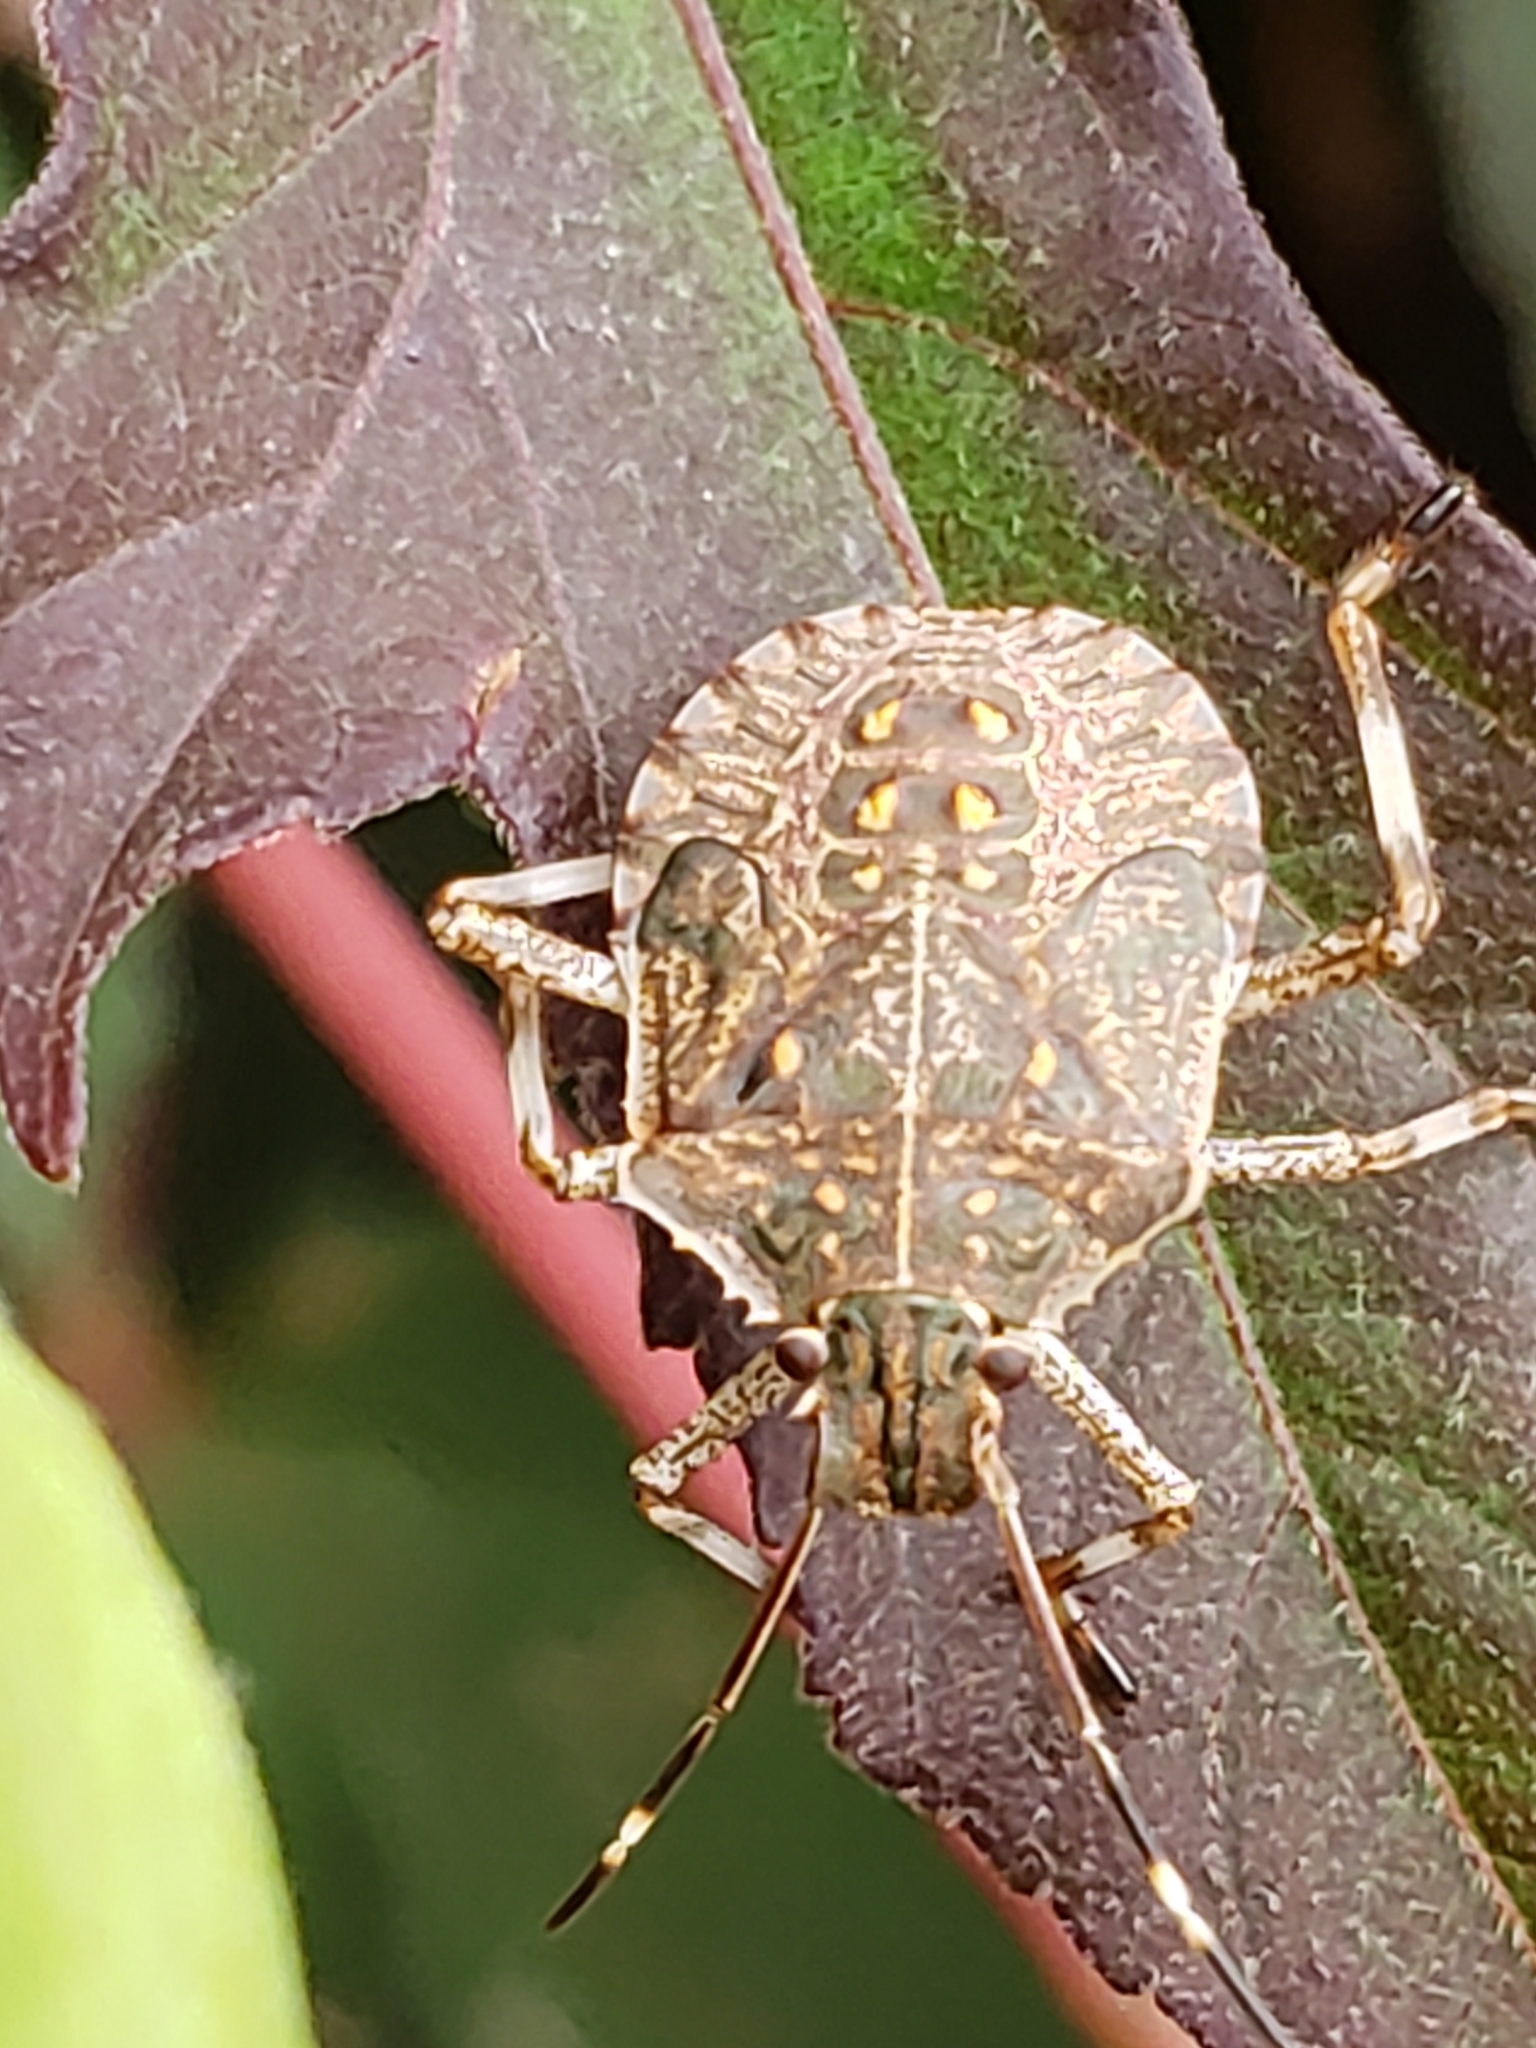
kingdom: Animalia
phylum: Arthropoda
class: Insecta
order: Hemiptera
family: Pentatomidae
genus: Halyomorpha
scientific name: Halyomorpha halys
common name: Brown marmorated stink bug
